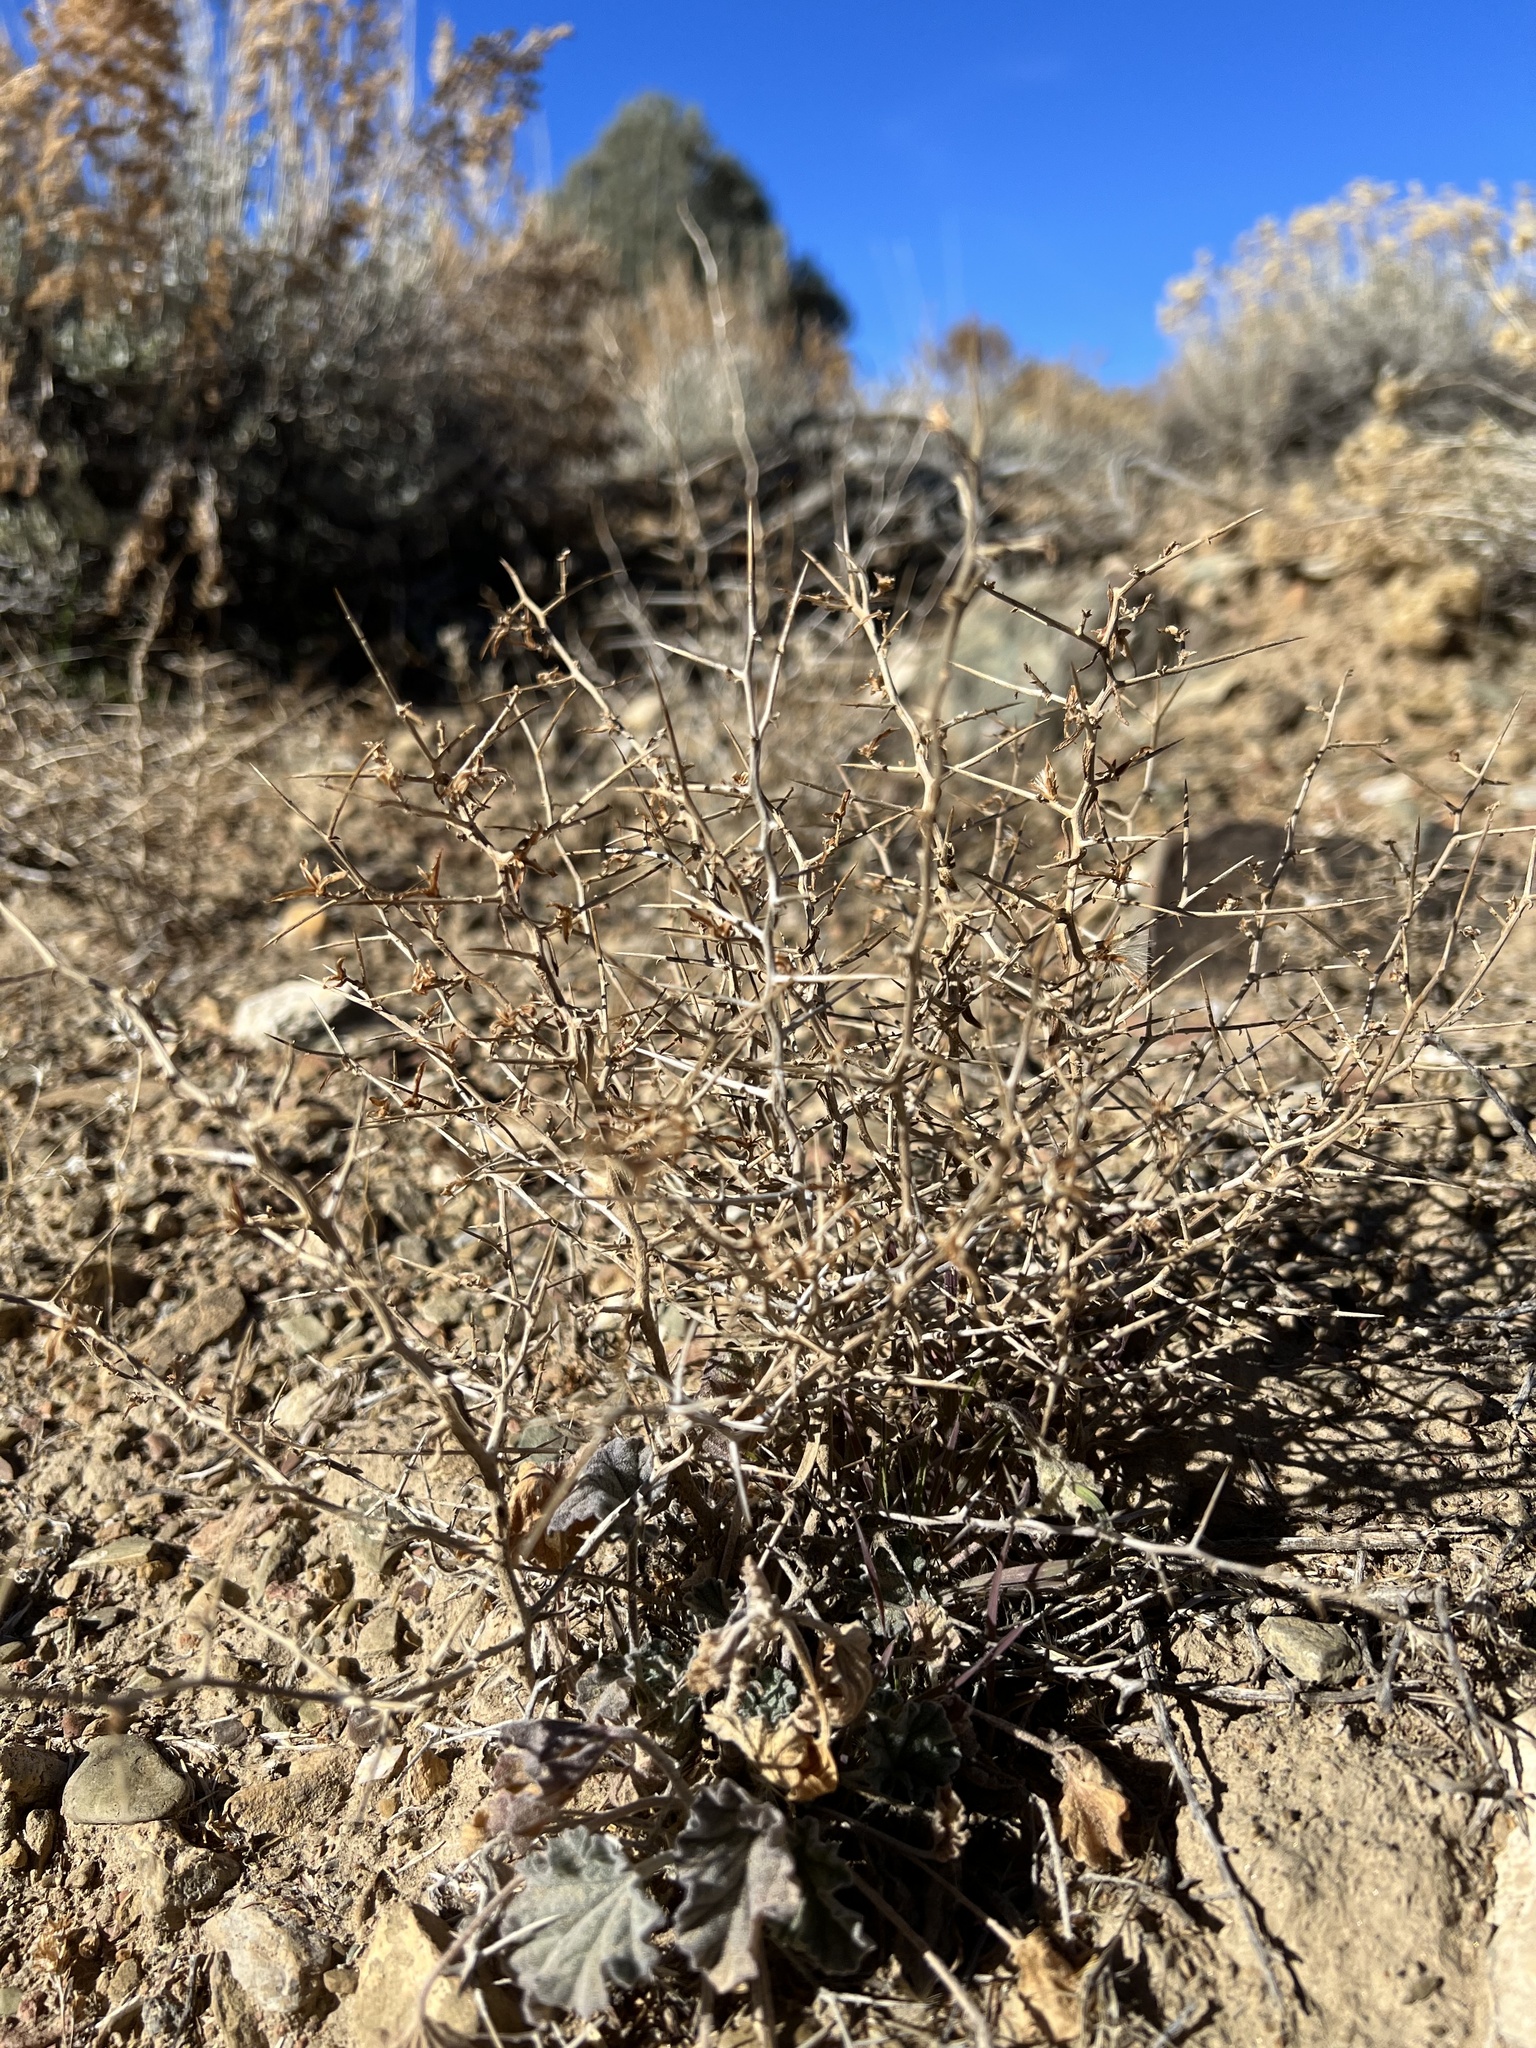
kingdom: Plantae
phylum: Tracheophyta
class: Magnoliopsida
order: Asterales
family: Asteraceae
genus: Pleiacanthus
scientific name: Pleiacanthus spinosus
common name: Thorny skeleton-weed
